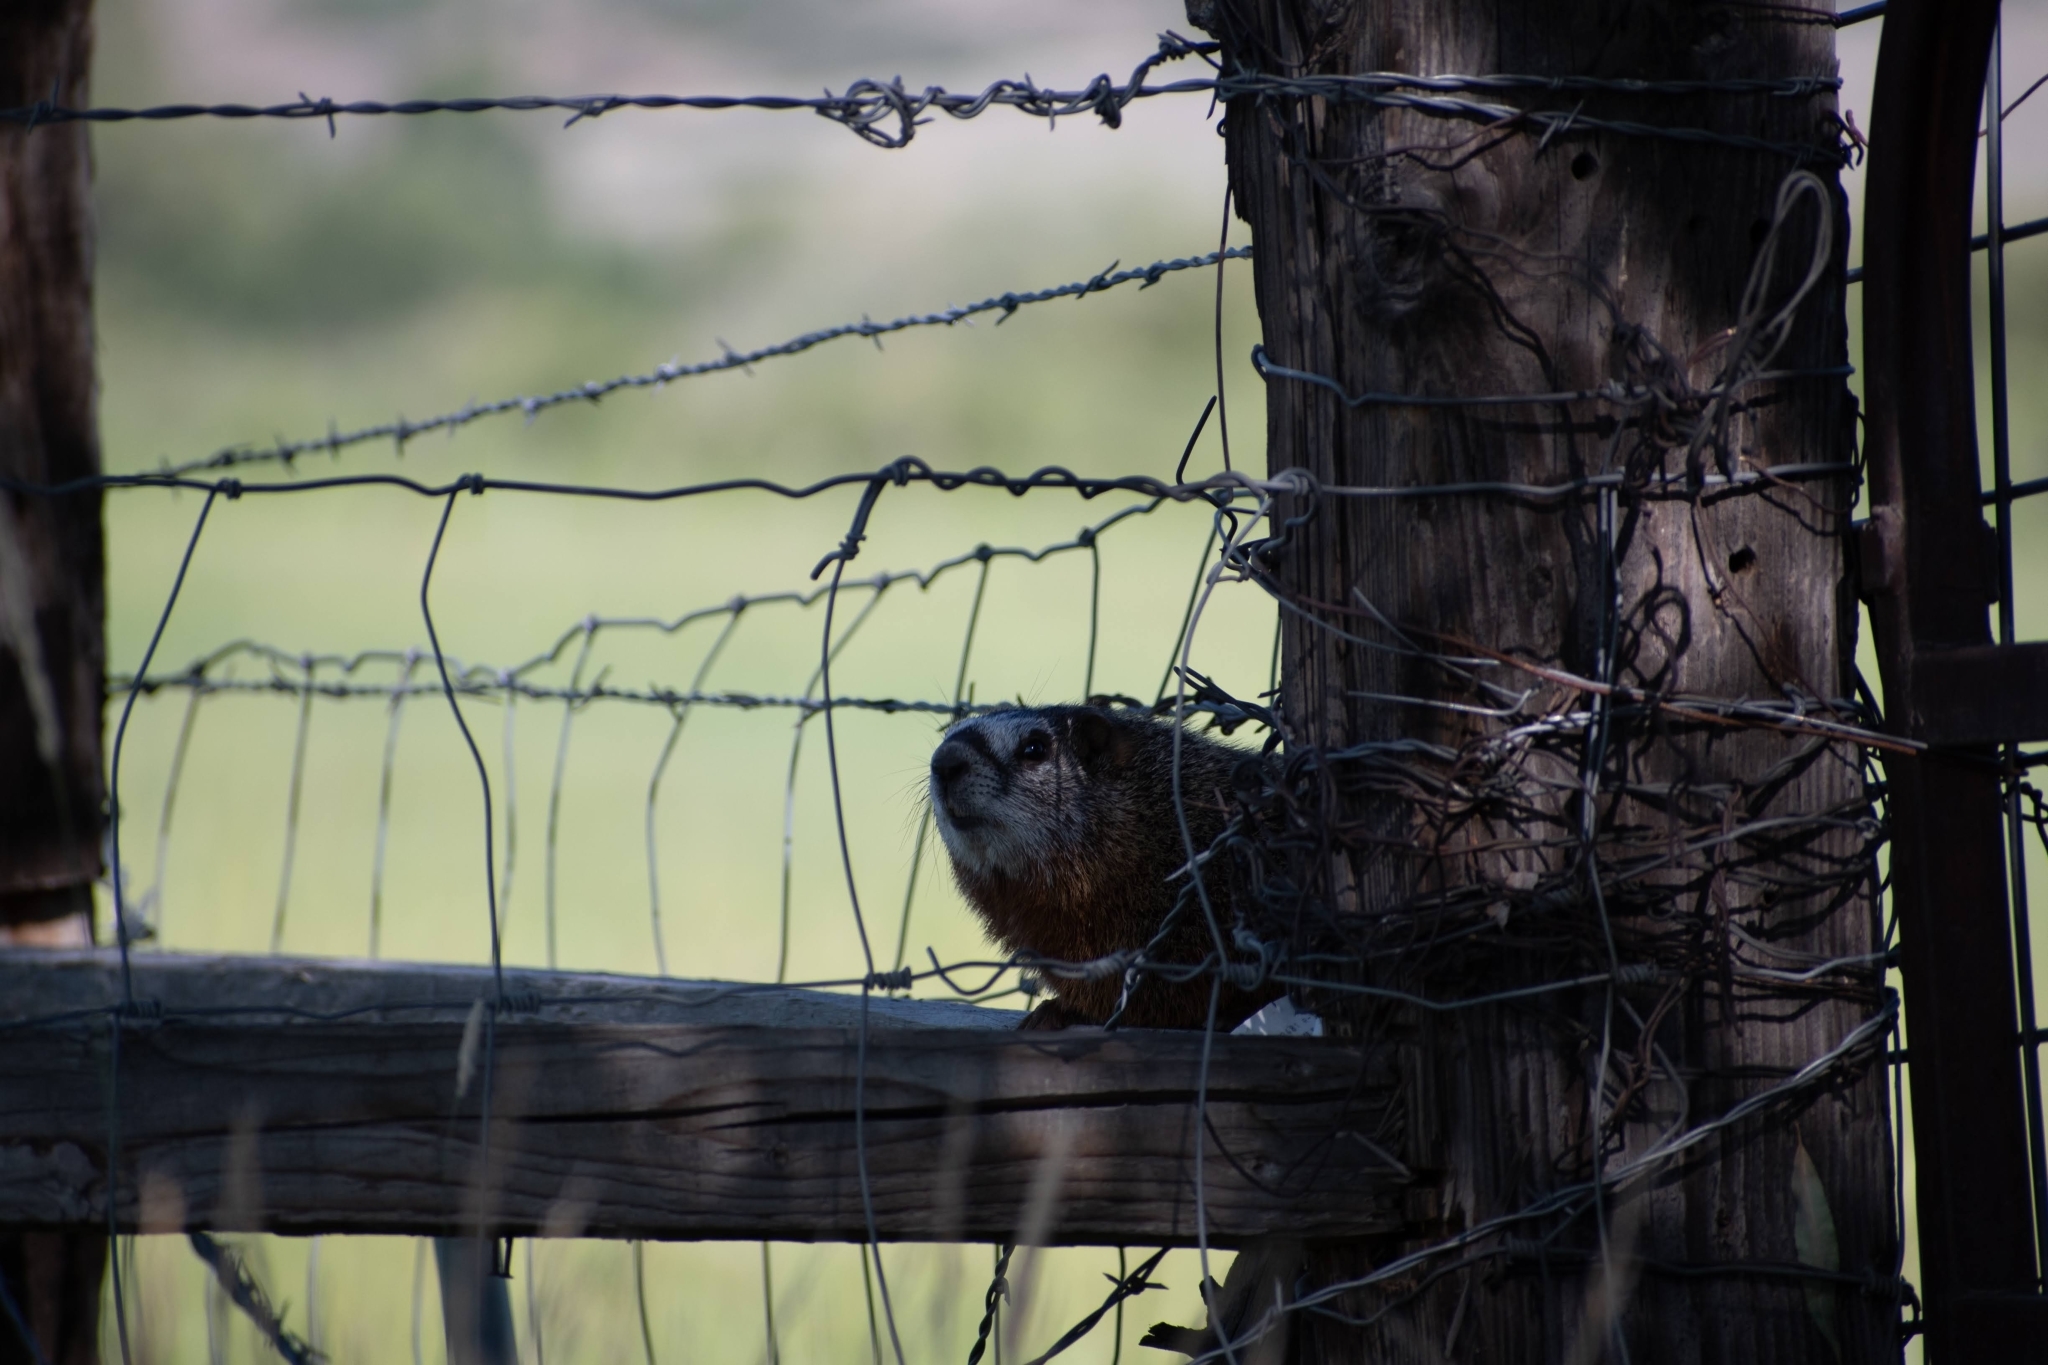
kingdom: Animalia
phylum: Chordata
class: Mammalia
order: Rodentia
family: Sciuridae
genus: Marmota
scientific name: Marmota flaviventris
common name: Yellow-bellied marmot
